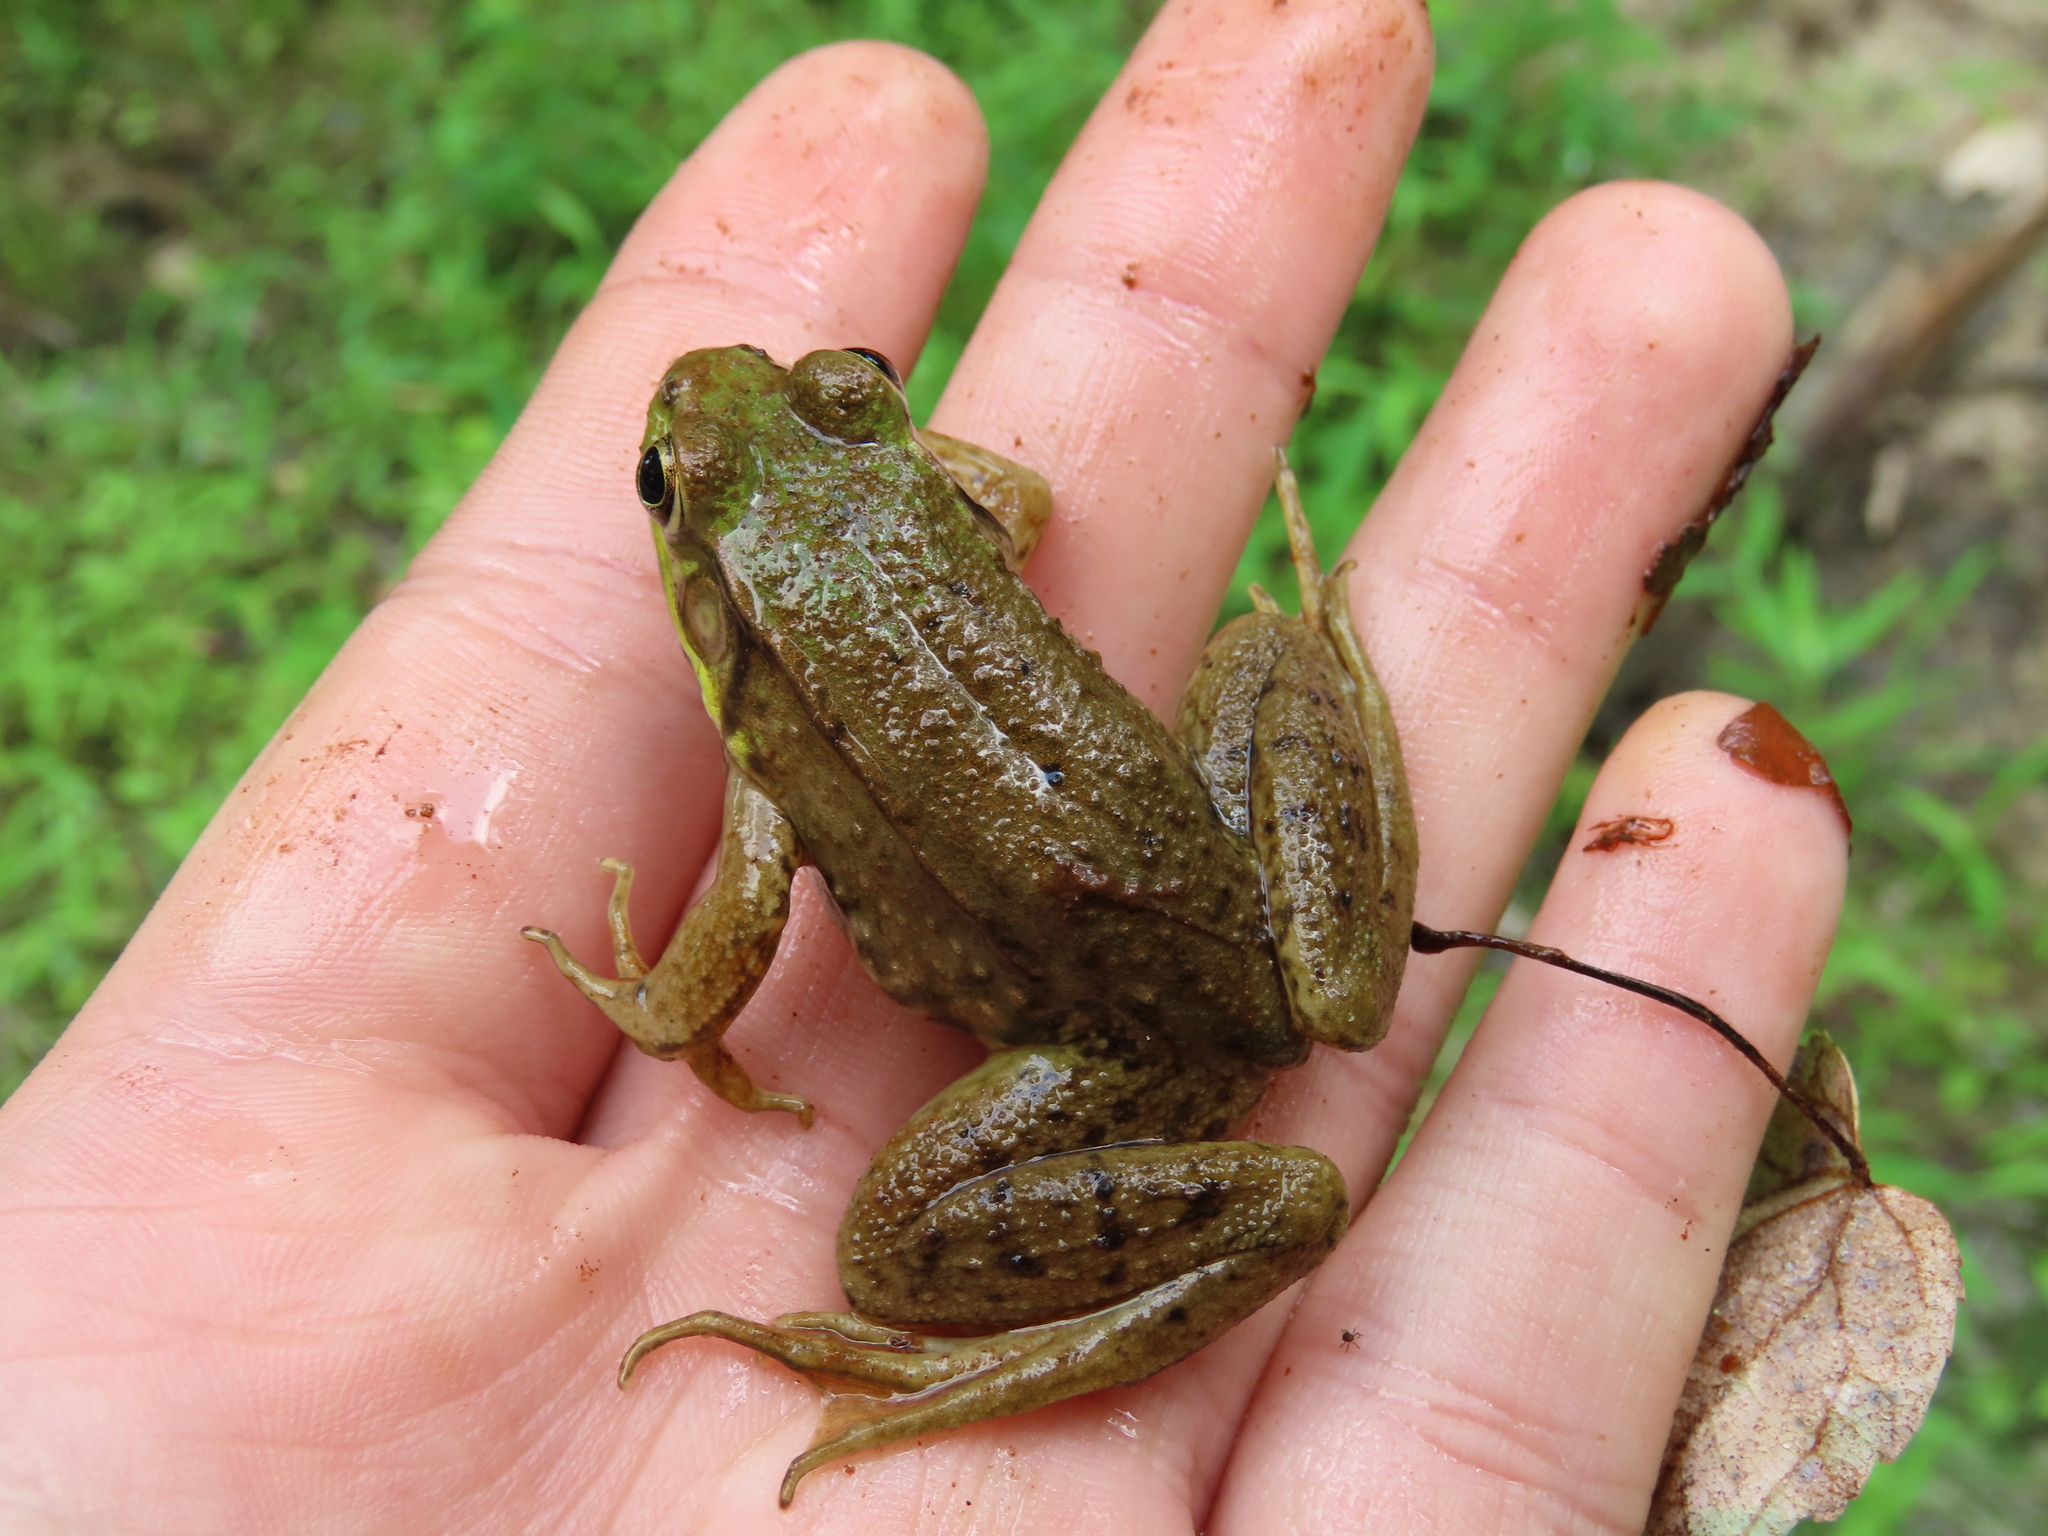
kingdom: Animalia
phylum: Chordata
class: Amphibia
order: Anura
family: Ranidae
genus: Lithobates
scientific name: Lithobates clamitans
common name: Green frog
